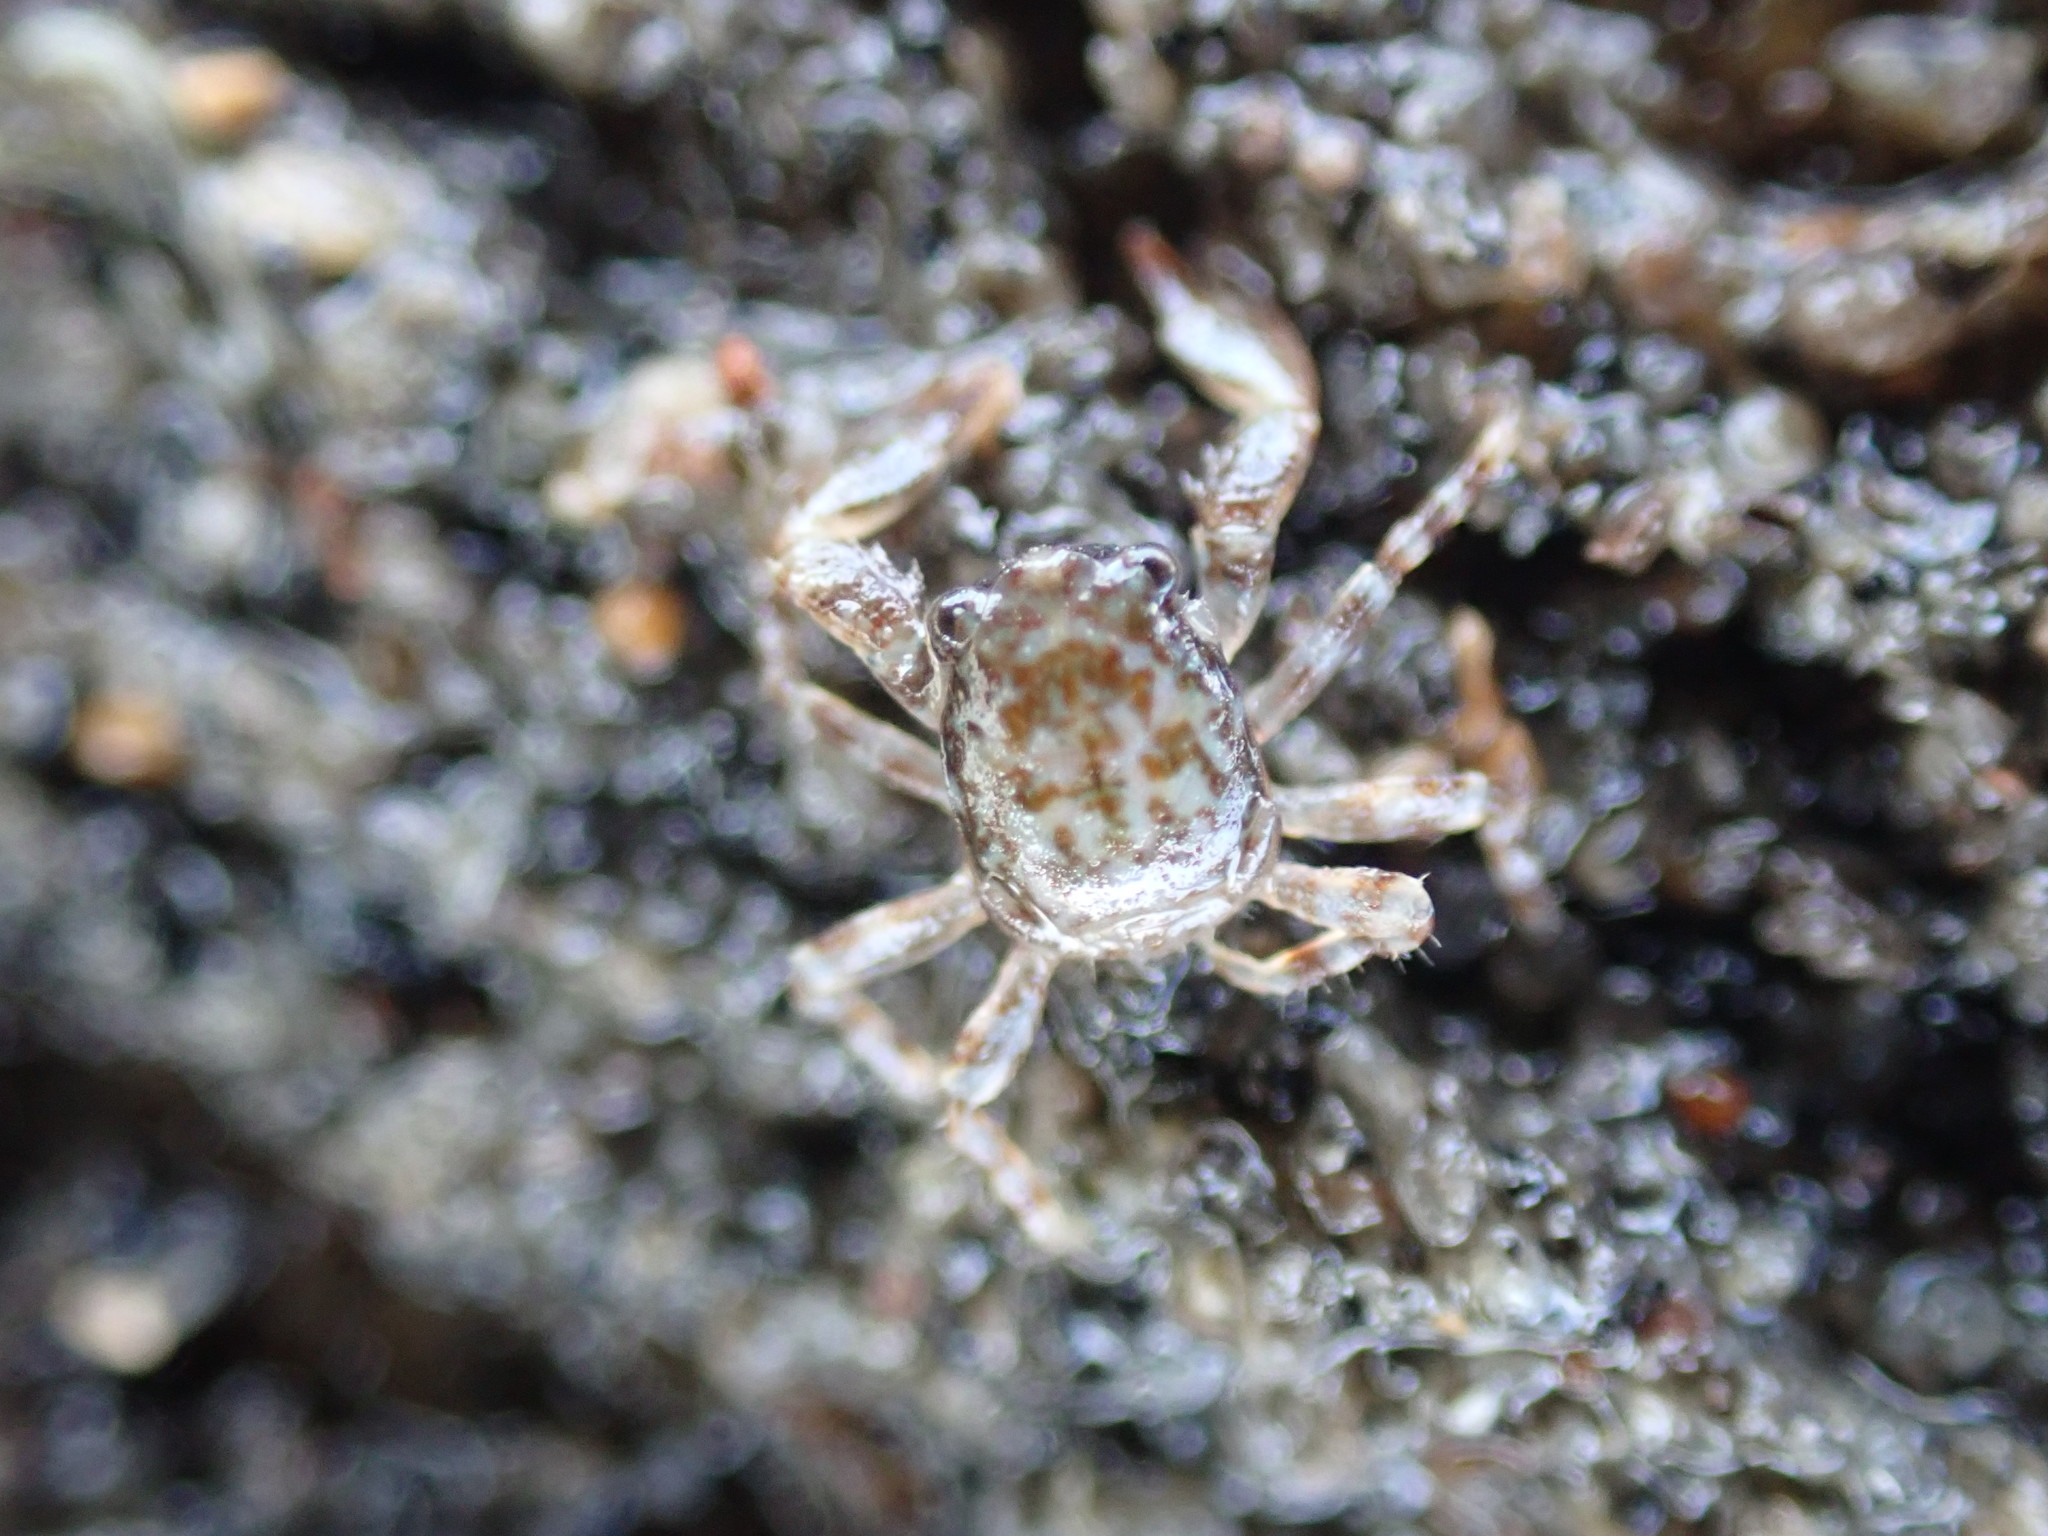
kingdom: Animalia
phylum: Arthropoda
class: Malacostraca
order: Decapoda
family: Porcellanidae
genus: Petrocheles
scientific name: Petrocheles spinosus
